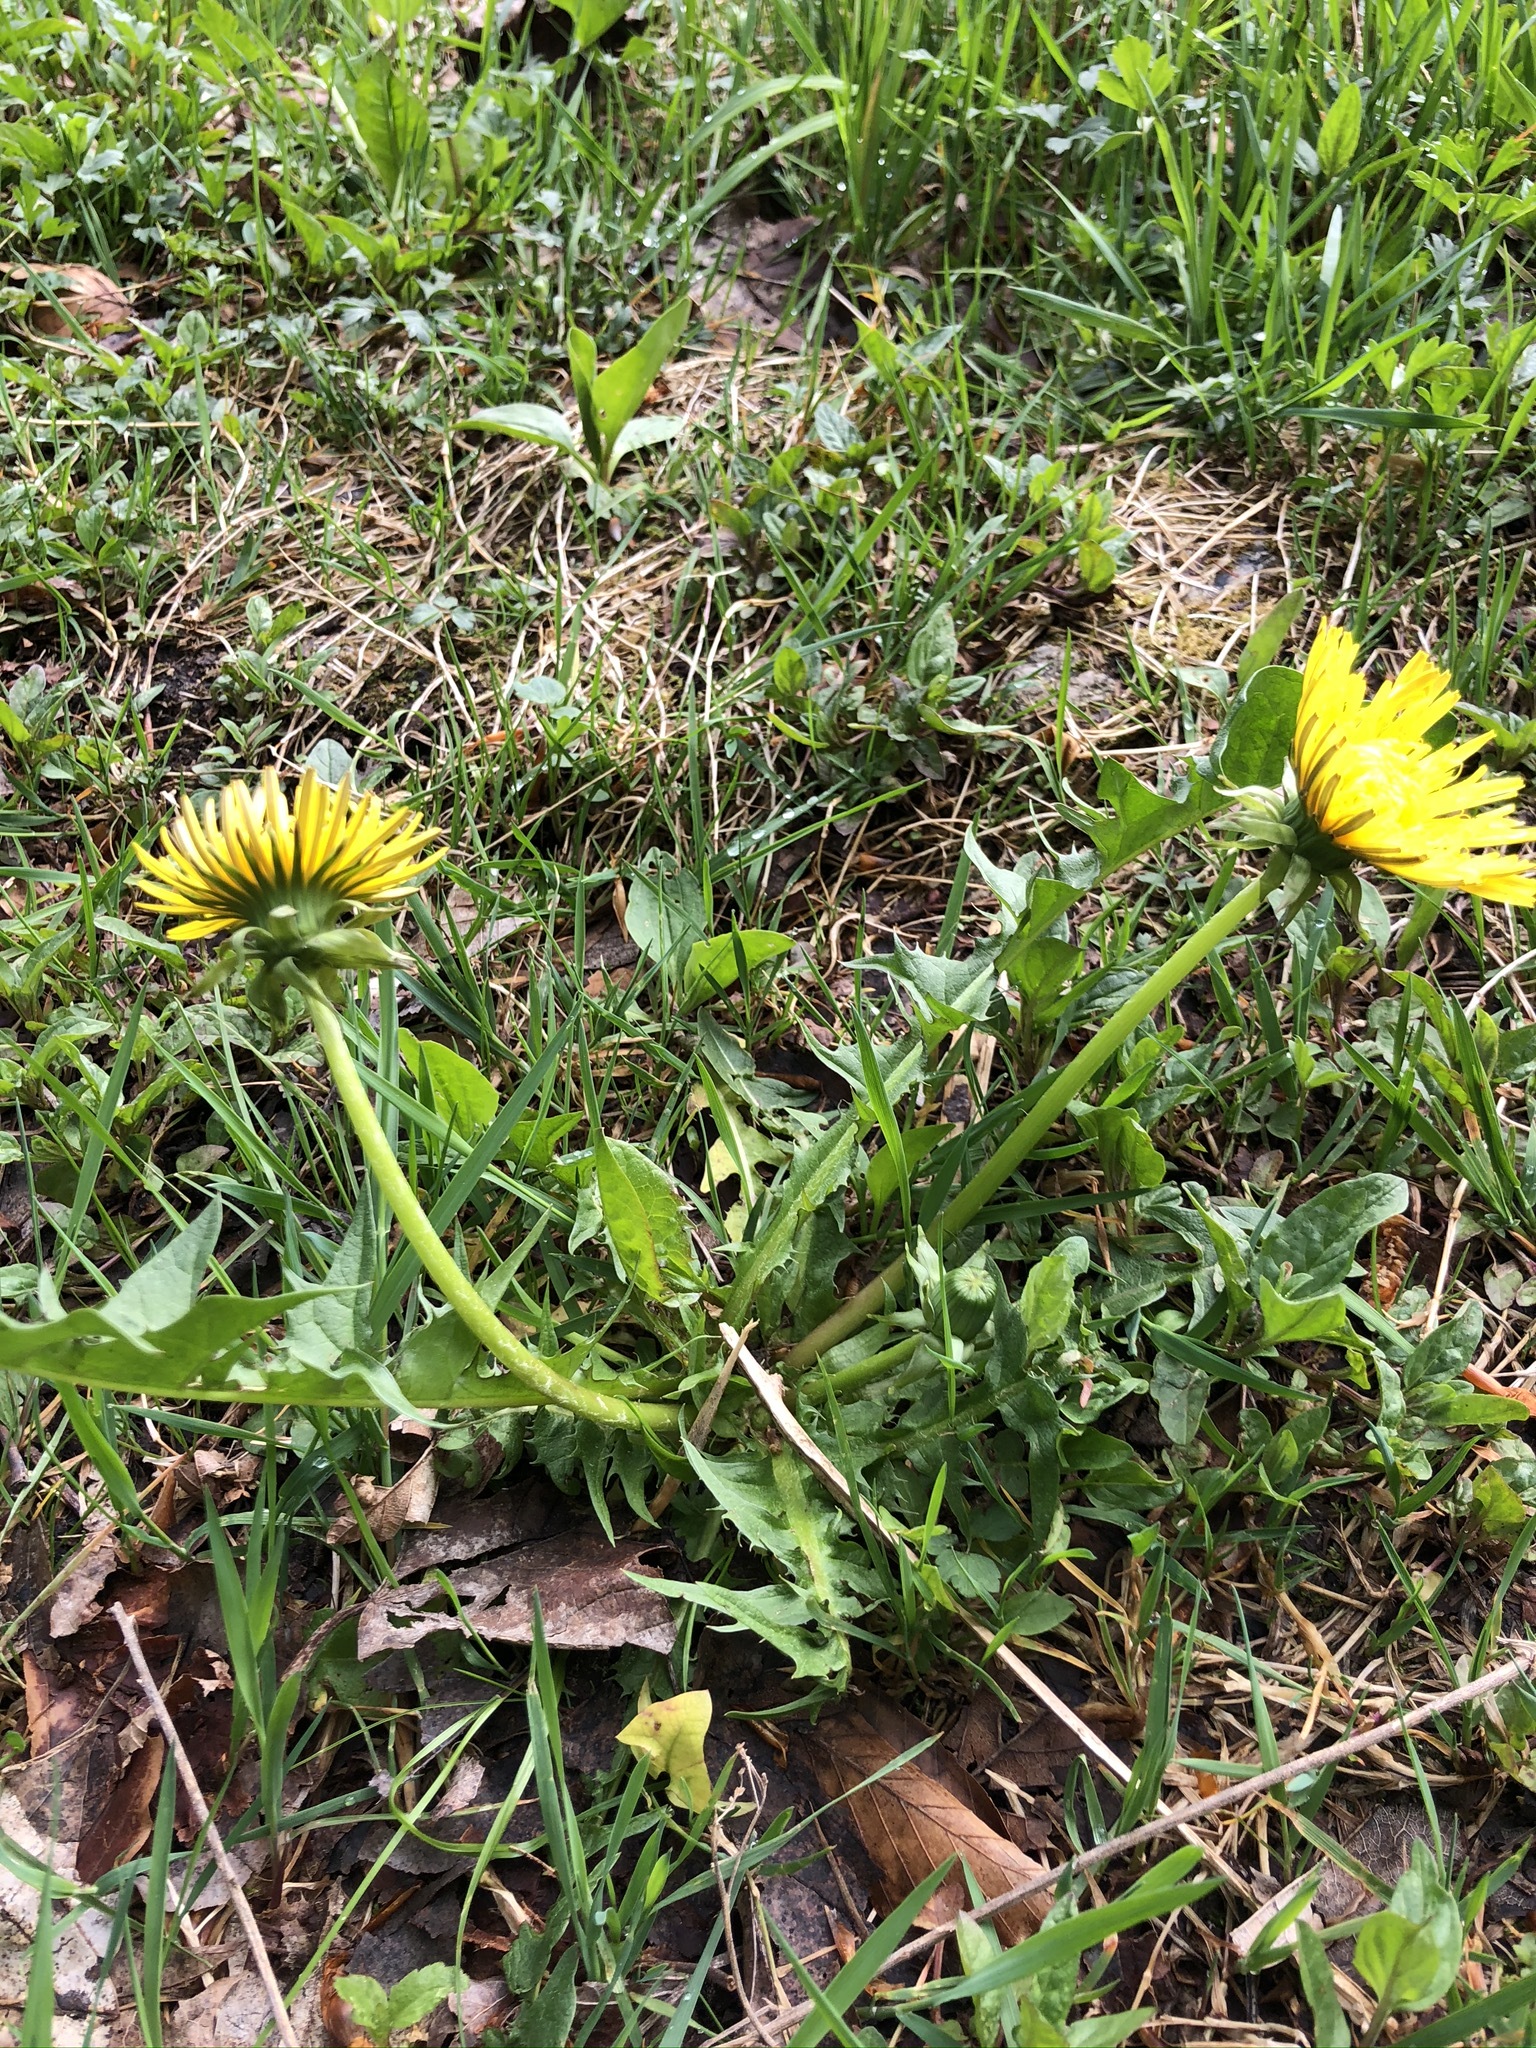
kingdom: Plantae
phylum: Tracheophyta
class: Magnoliopsida
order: Asterales
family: Asteraceae
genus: Taraxacum
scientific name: Taraxacum officinale
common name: Common dandelion
